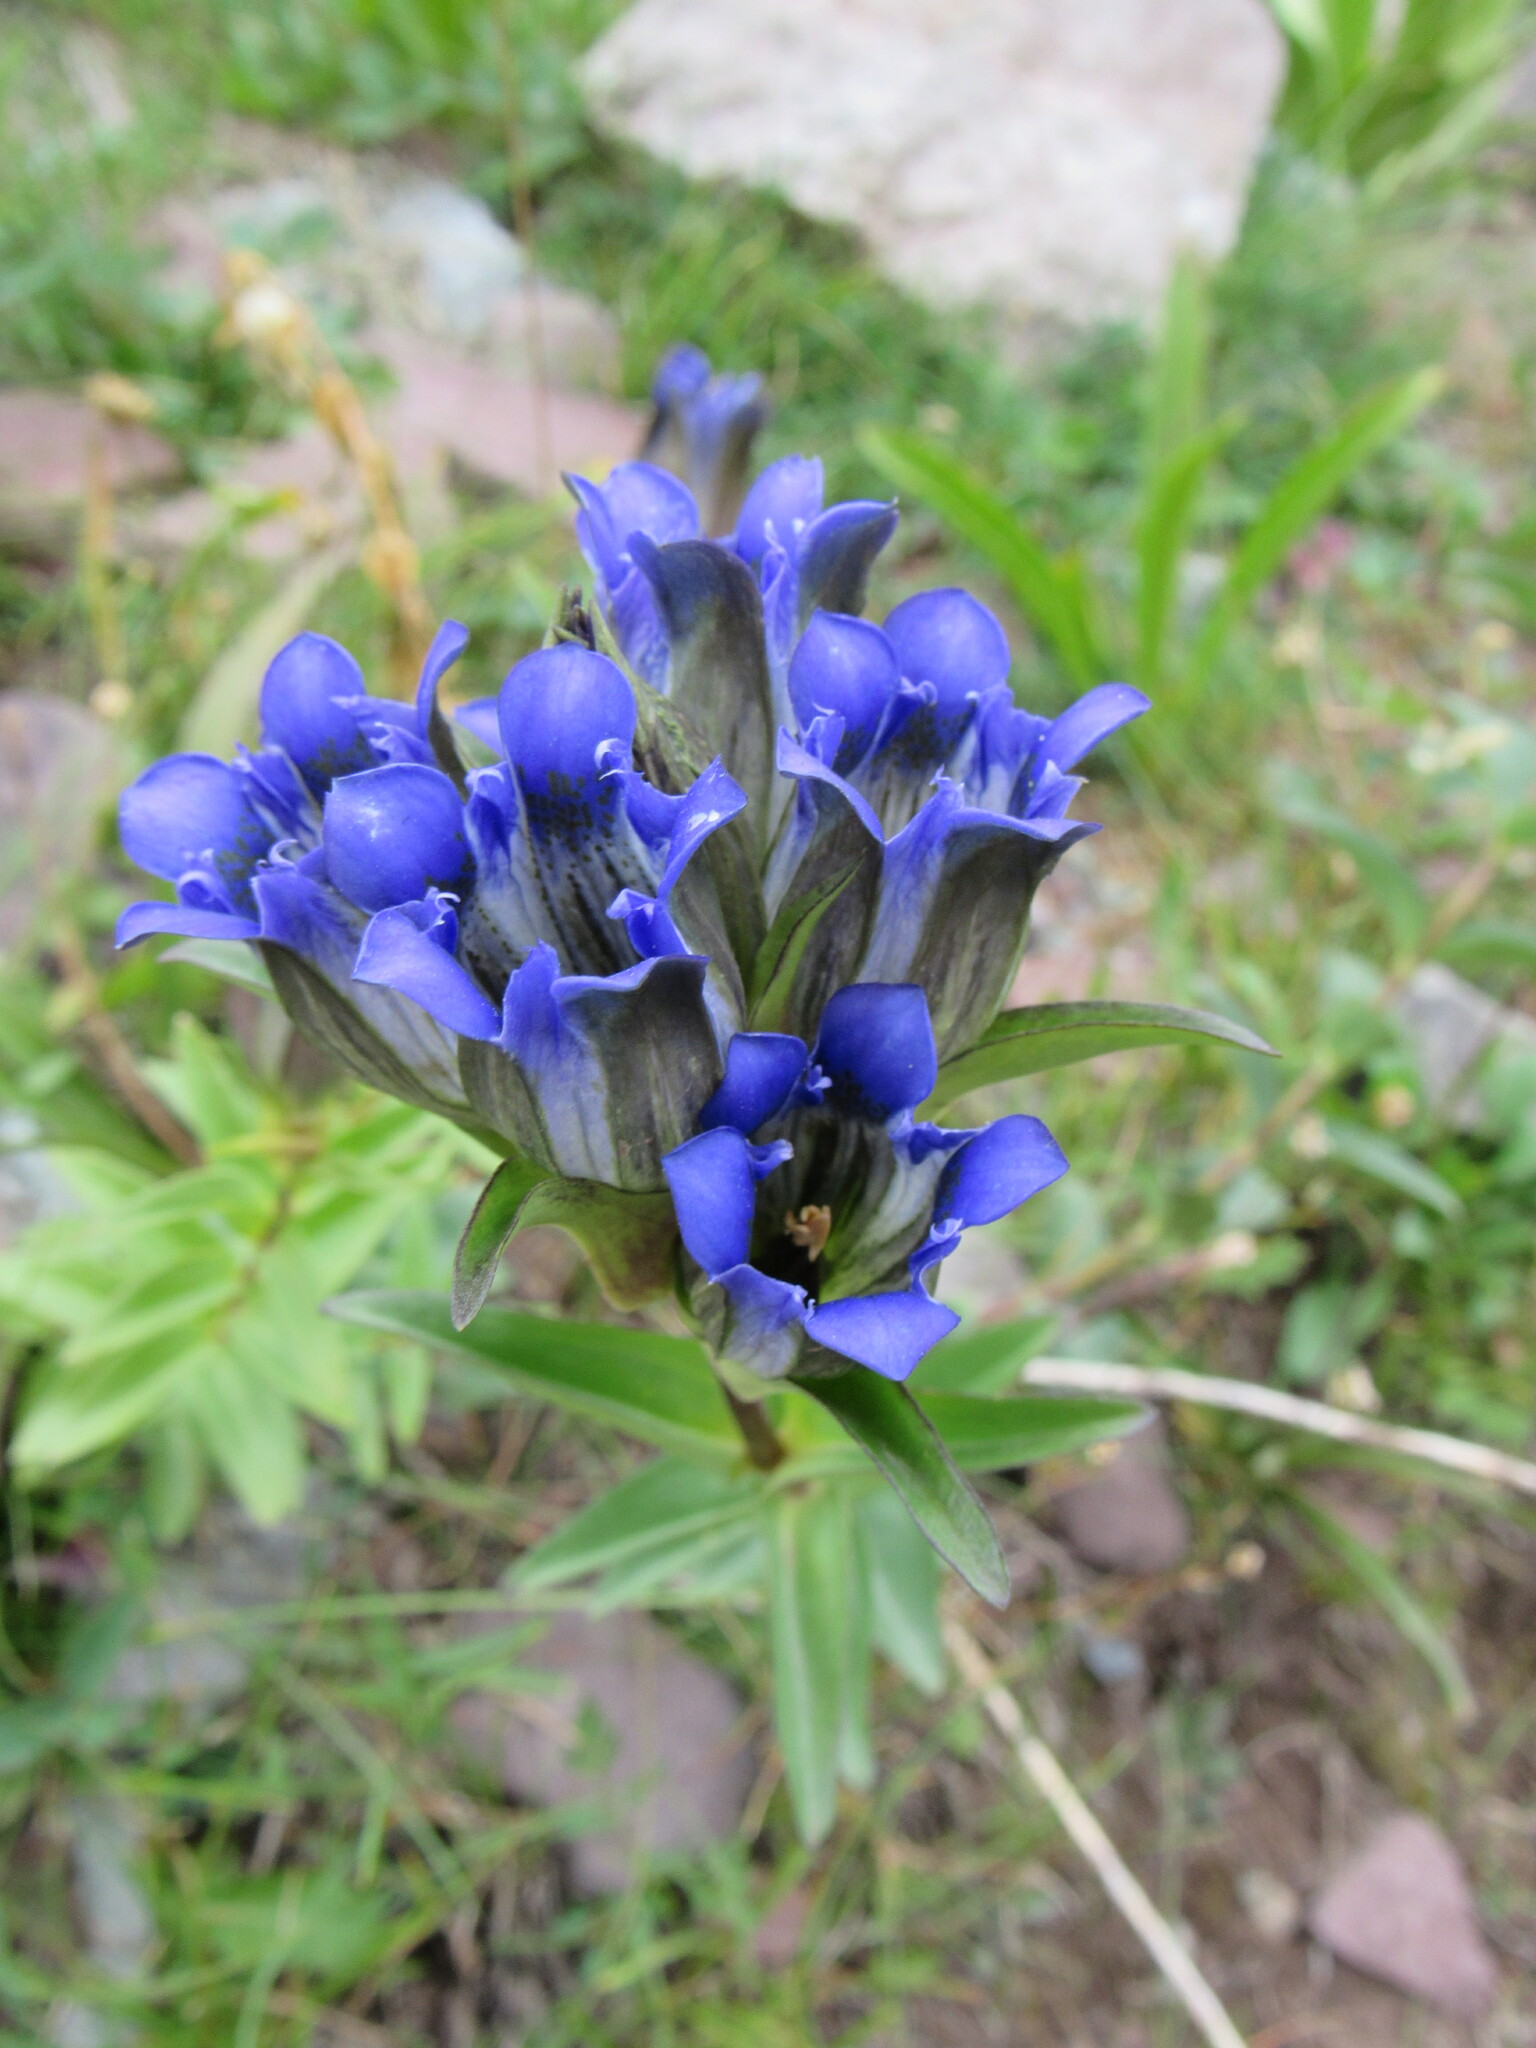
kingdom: Plantae
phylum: Tracheophyta
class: Magnoliopsida
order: Gentianales
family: Gentianaceae
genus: Gentiana
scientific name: Gentiana parryi
